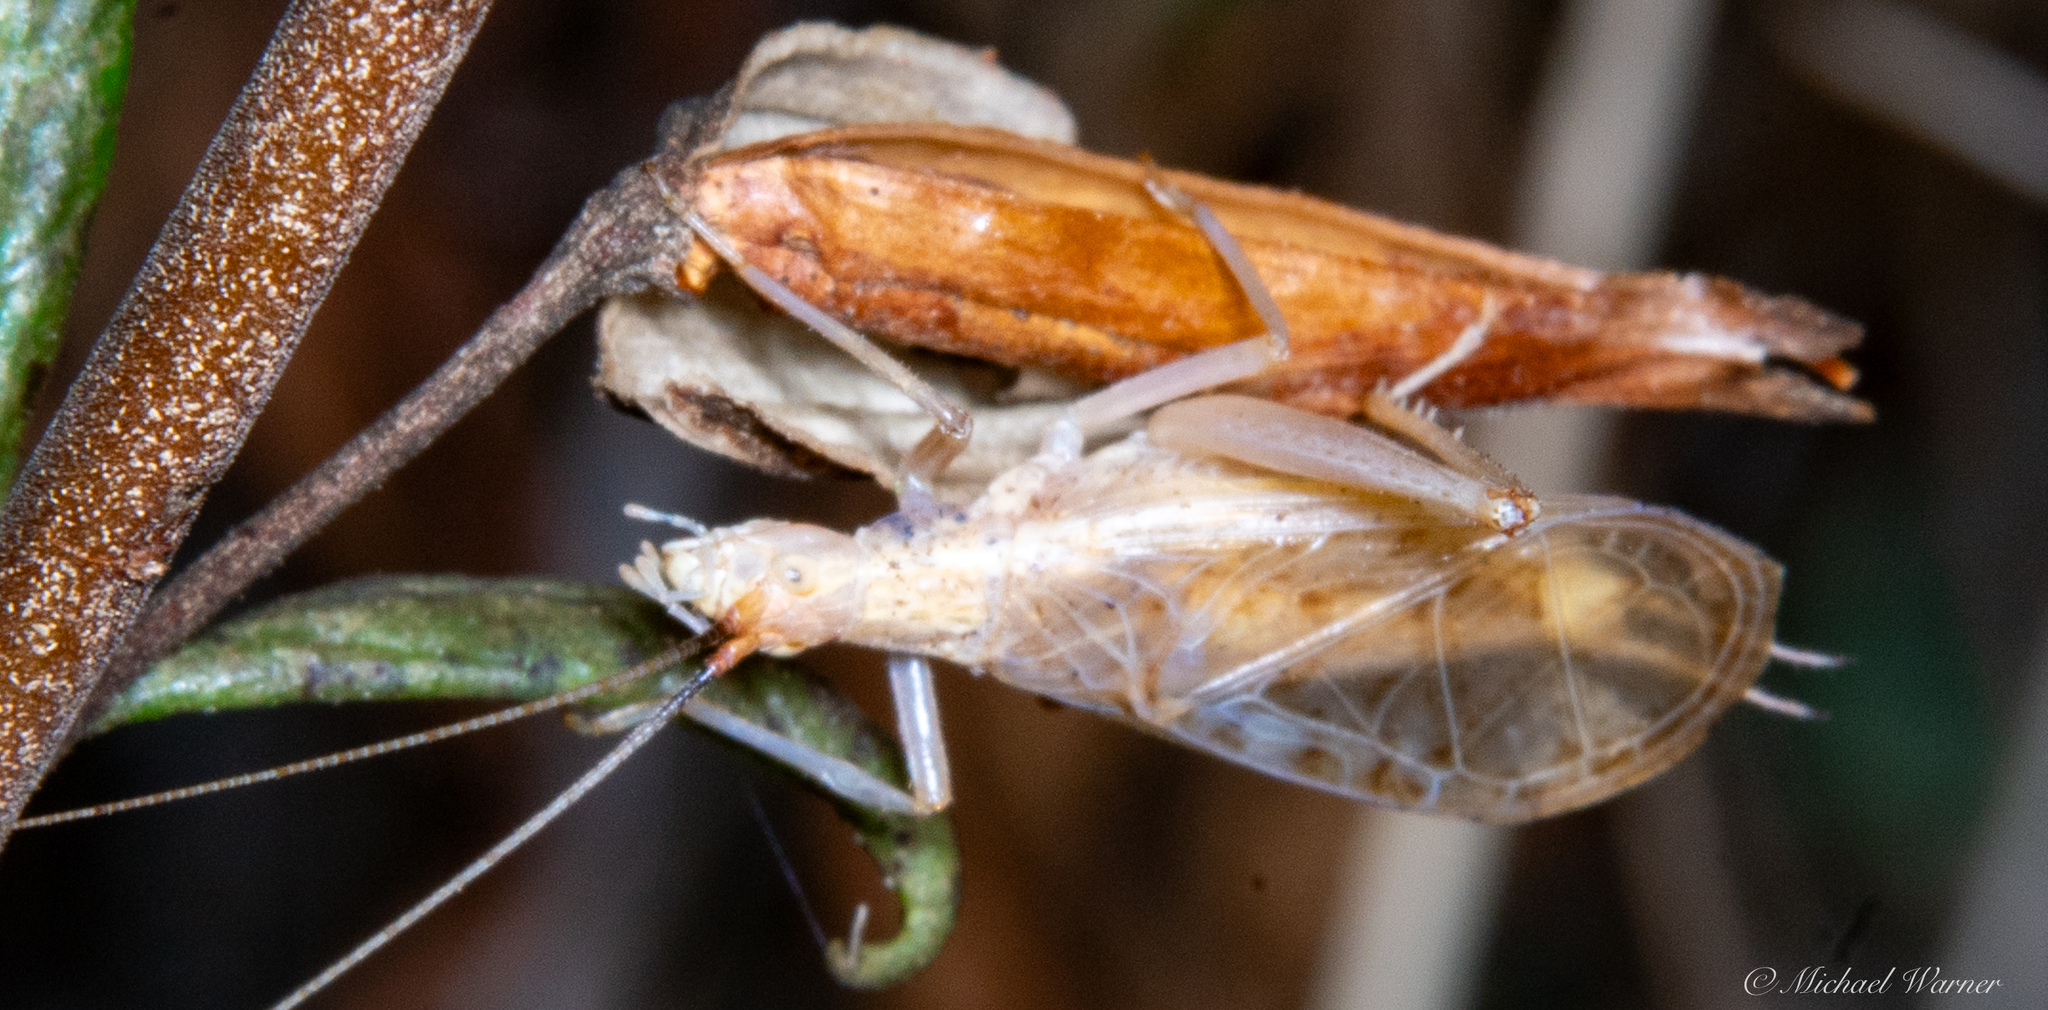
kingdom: Animalia
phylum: Arthropoda
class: Insecta
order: Orthoptera
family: Gryllidae
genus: Oecanthus
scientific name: Oecanthus californicus
